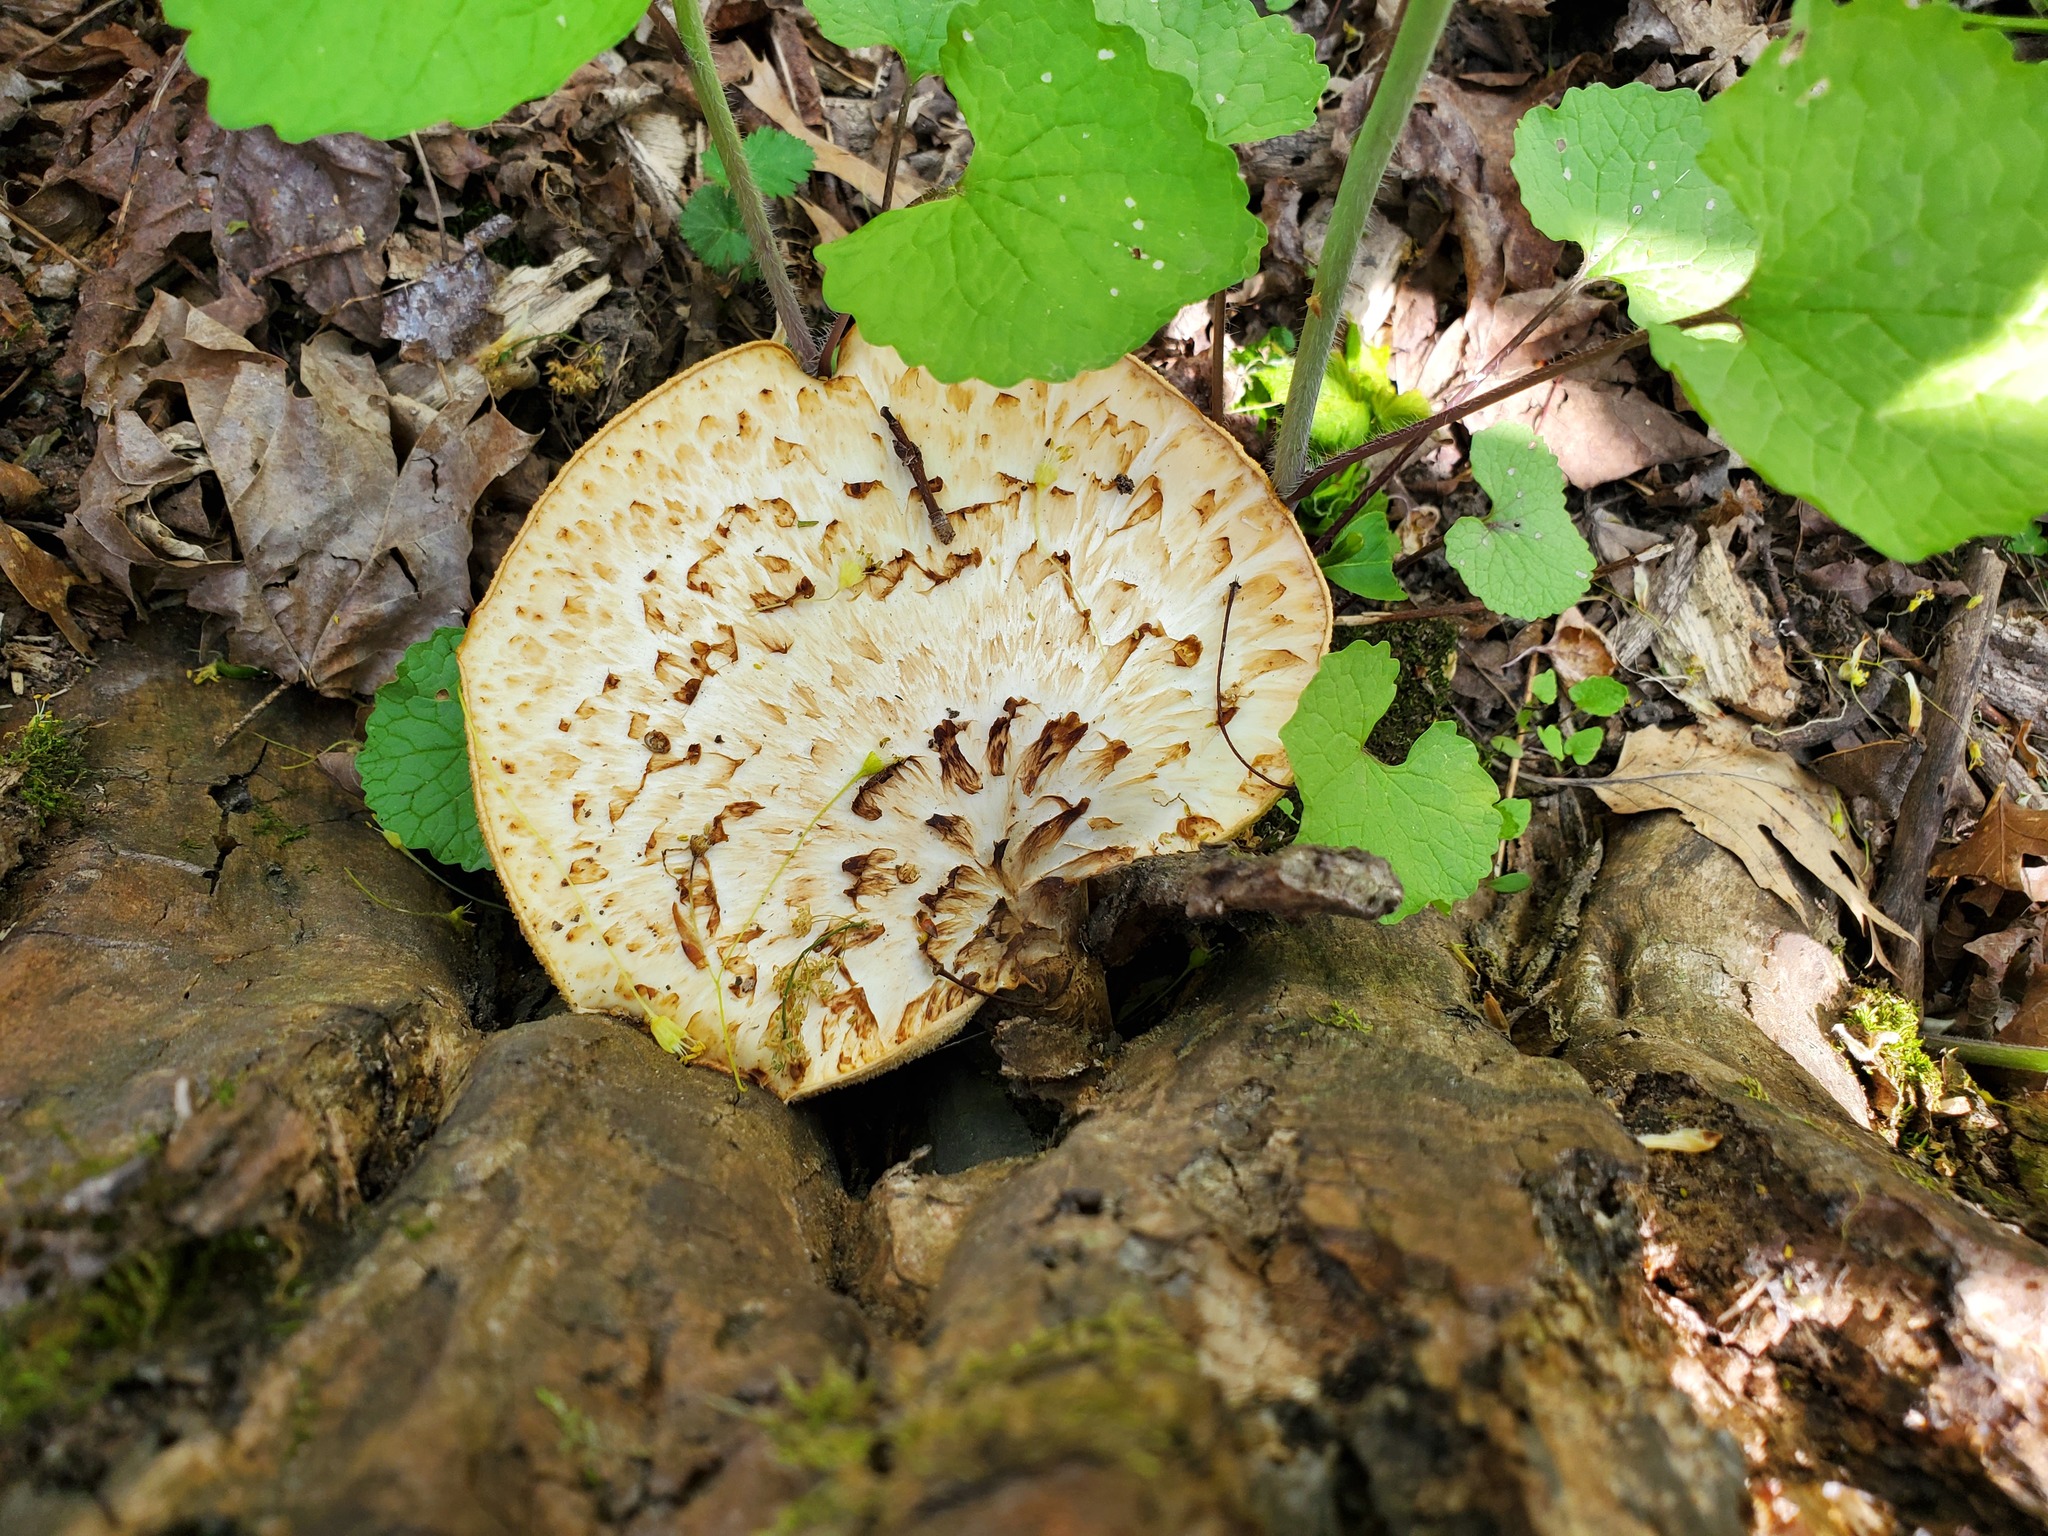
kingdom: Fungi
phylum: Basidiomycota
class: Agaricomycetes
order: Polyporales
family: Polyporaceae
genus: Cerioporus
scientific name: Cerioporus squamosus
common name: Dryad's saddle
